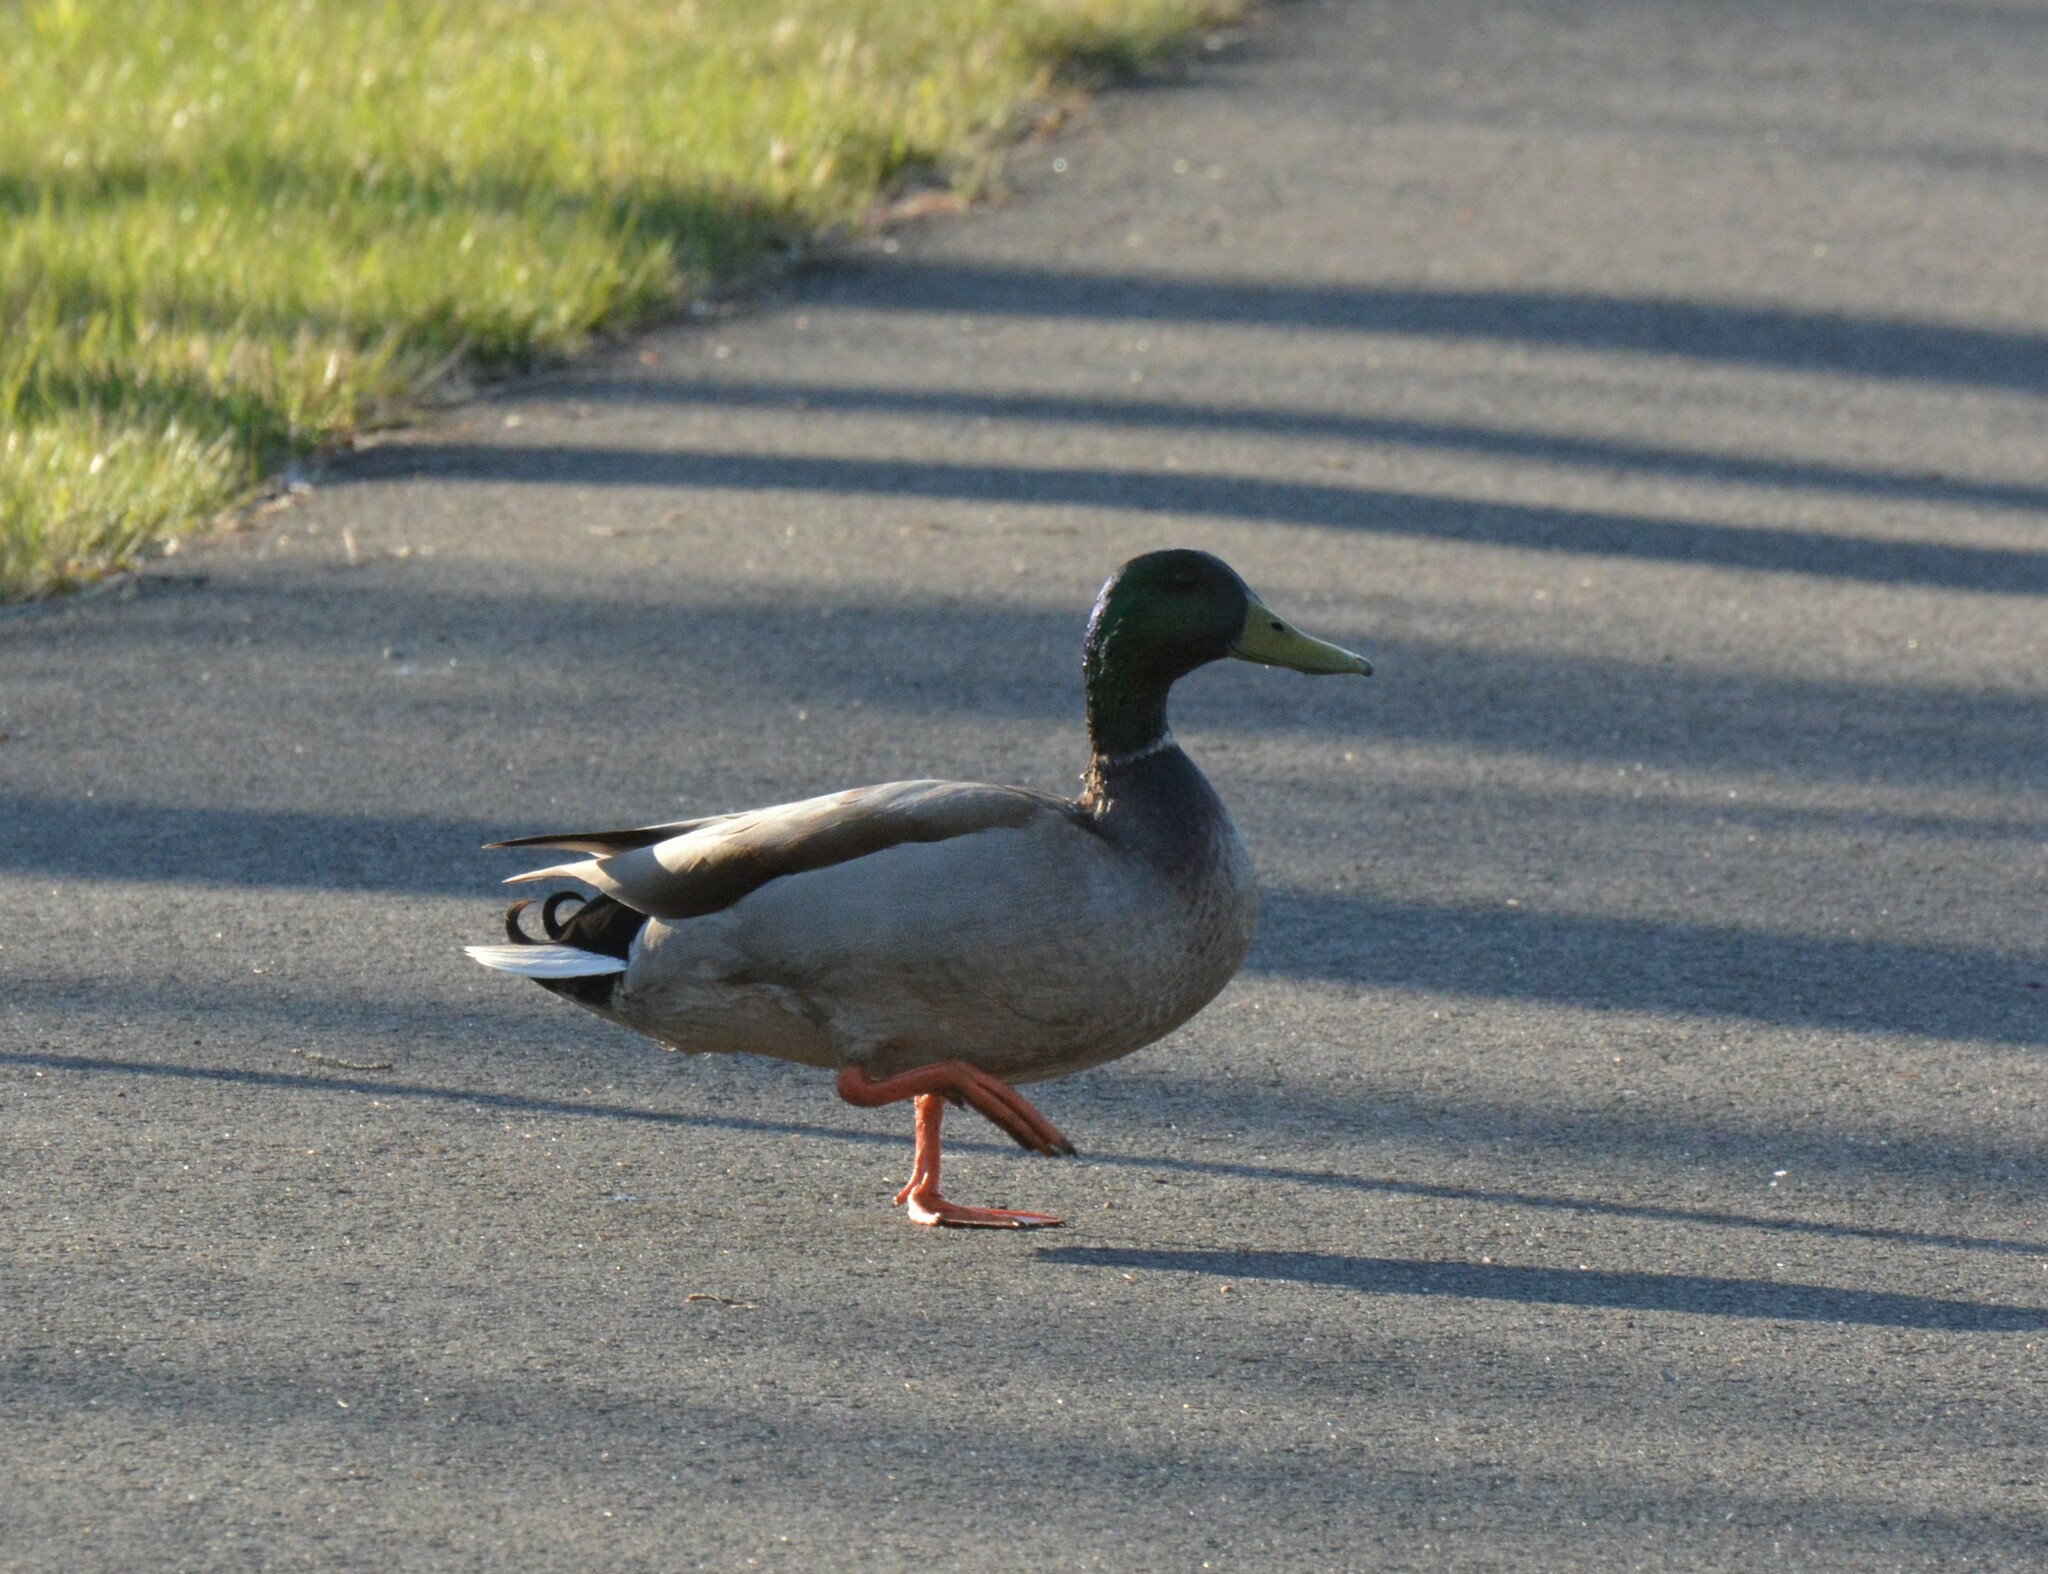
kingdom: Animalia
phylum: Chordata
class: Aves
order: Anseriformes
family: Anatidae
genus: Anas
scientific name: Anas platyrhynchos
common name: Mallard
